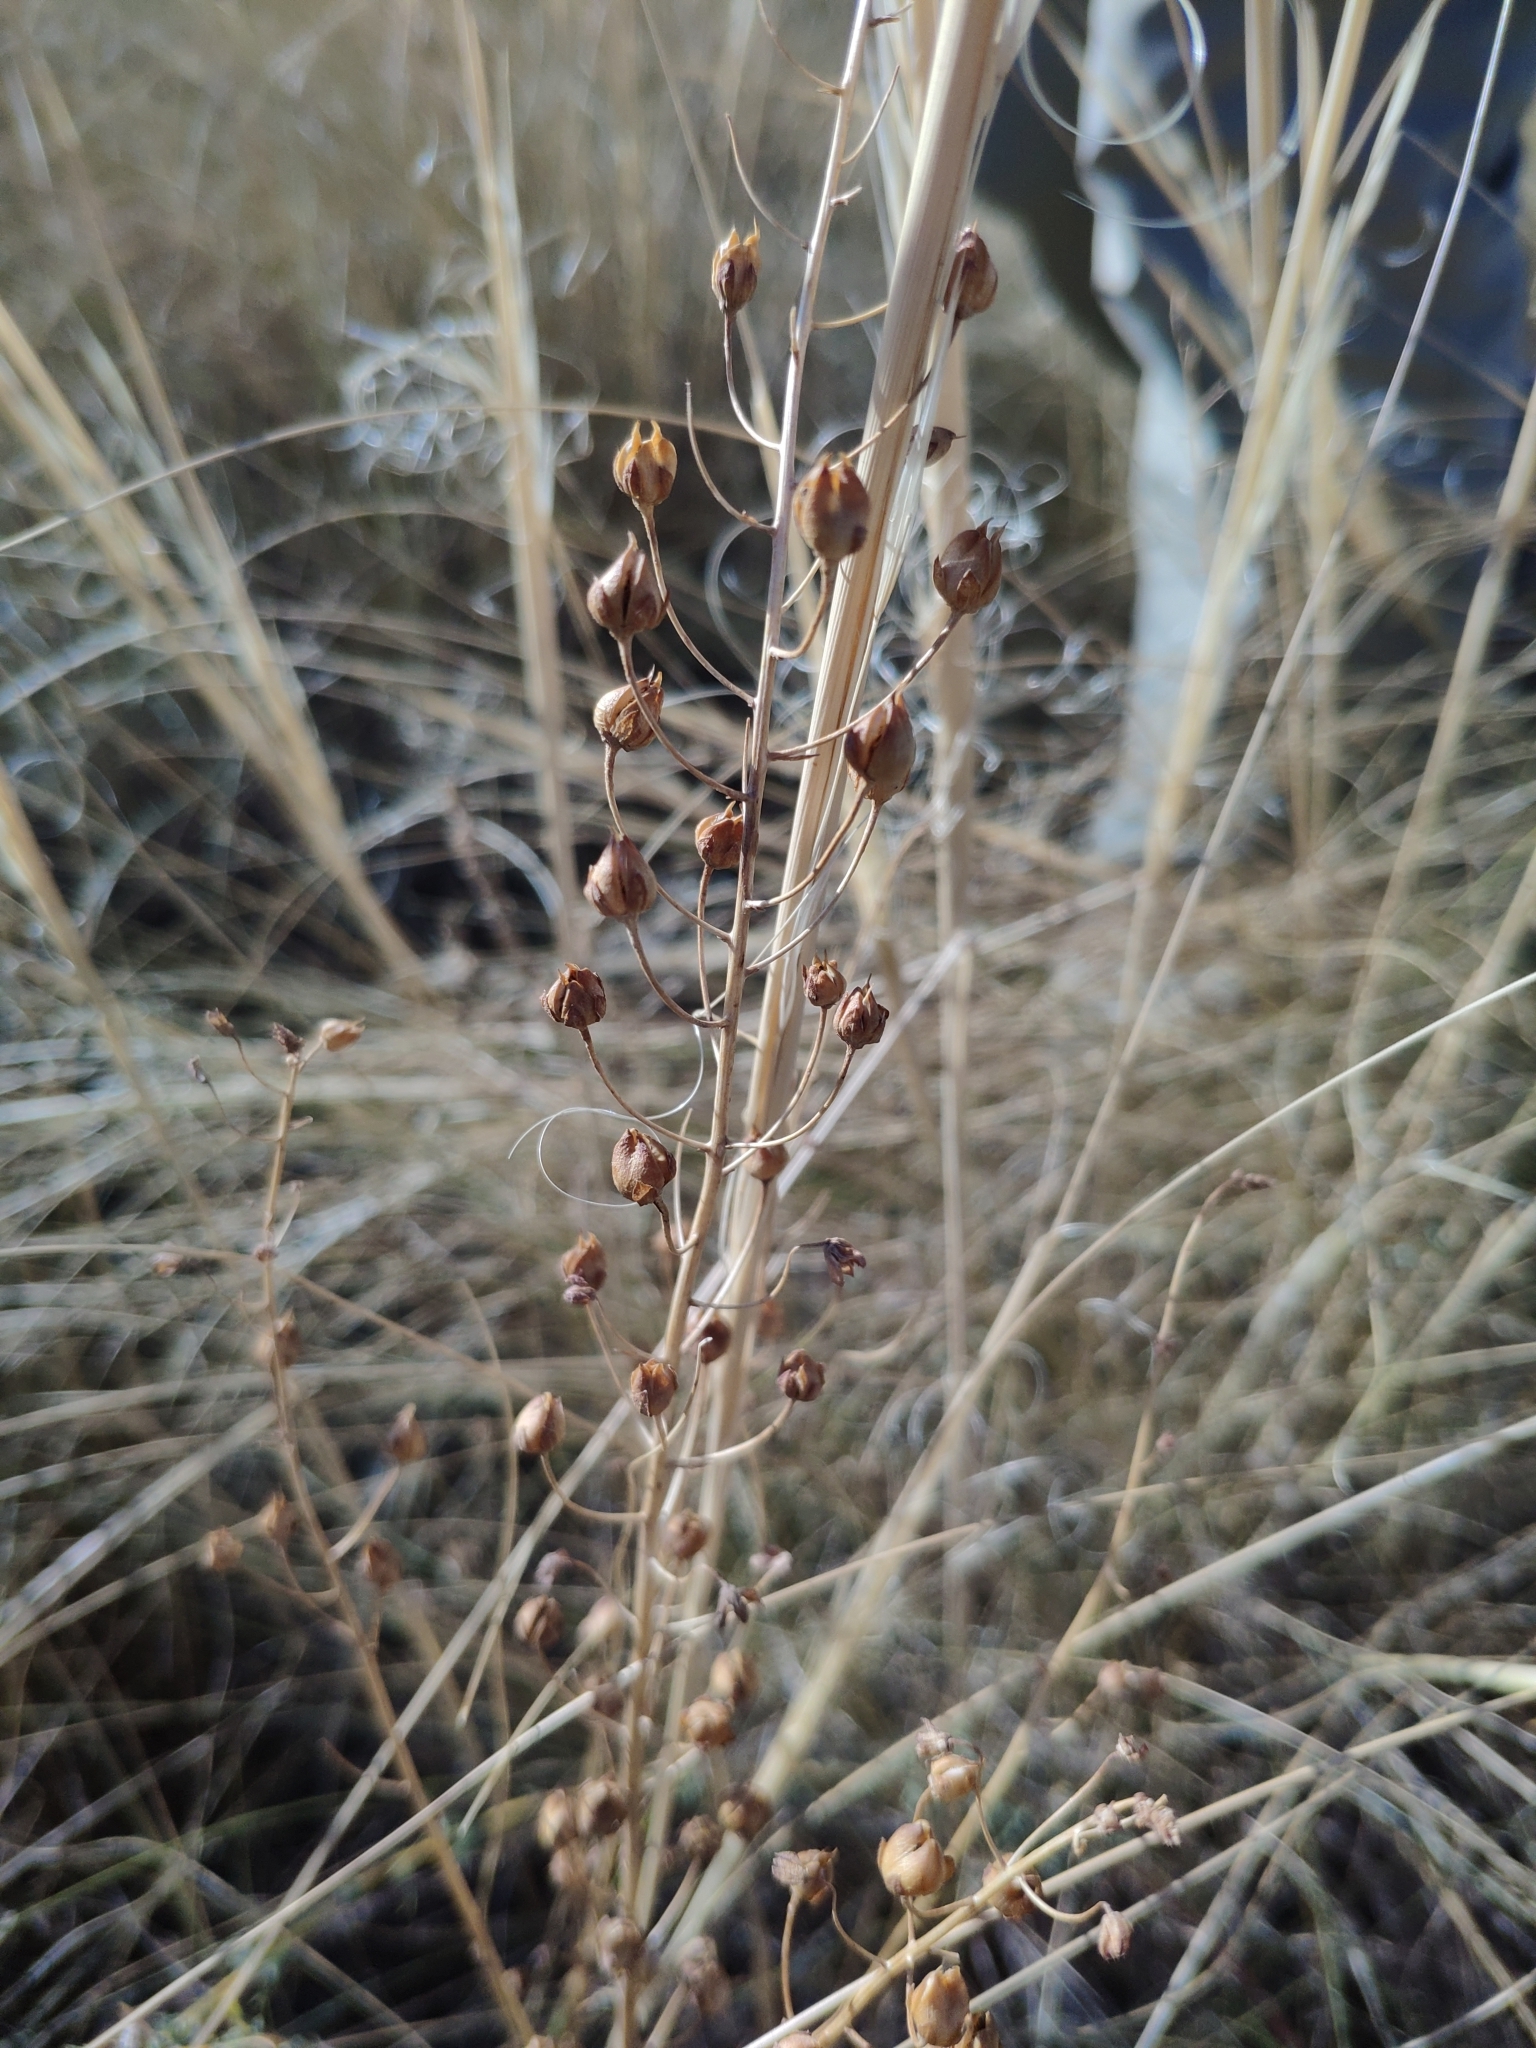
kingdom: Plantae
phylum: Tracheophyta
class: Magnoliopsida
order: Lamiales
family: Scrophulariaceae
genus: Verbascum
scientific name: Verbascum phoeniceum
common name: Purple mullein
